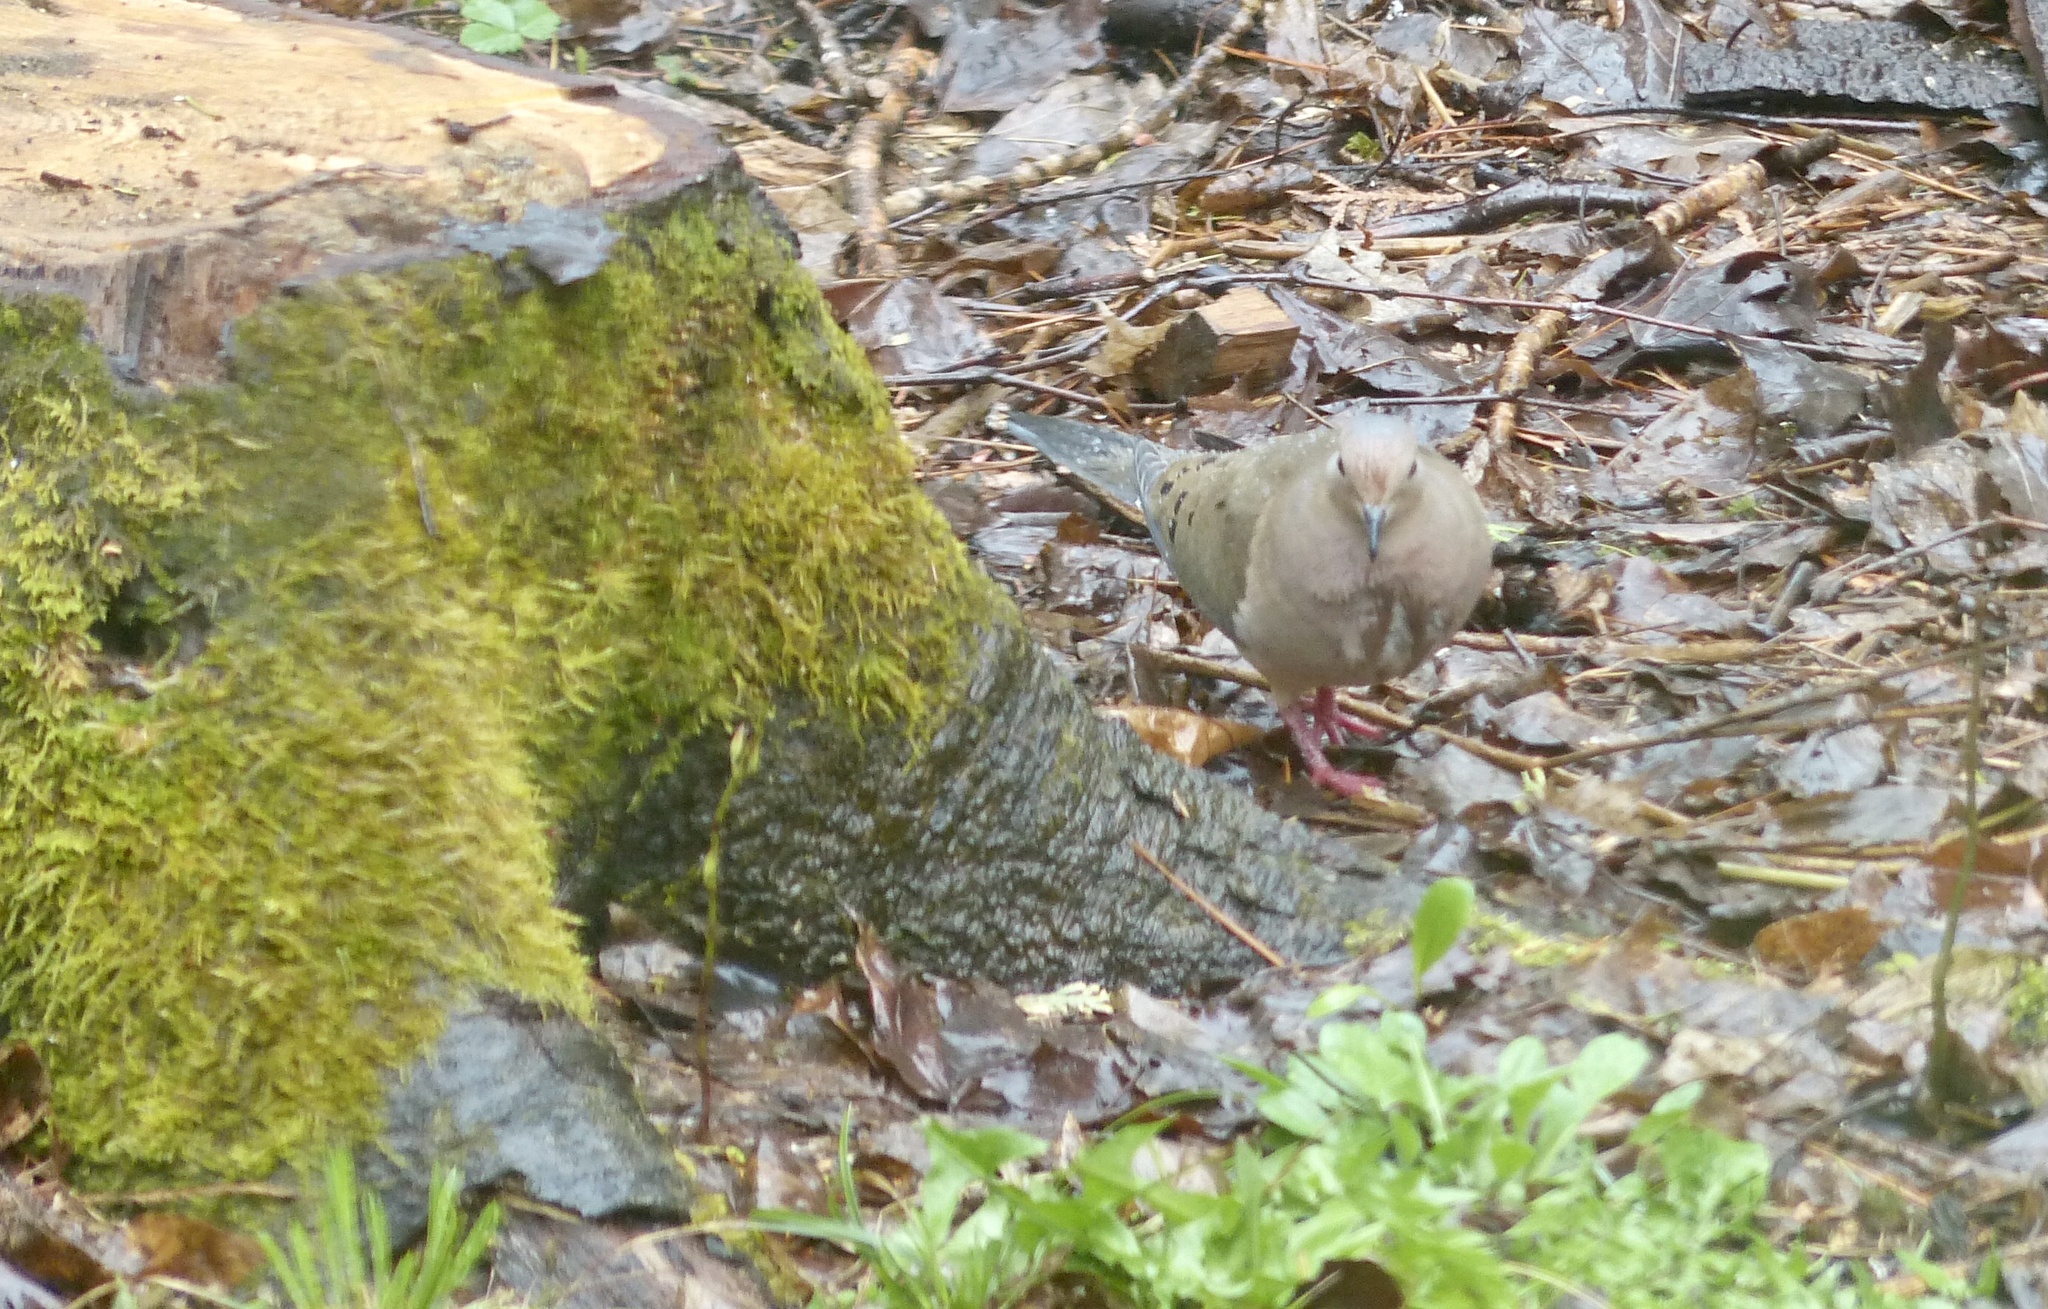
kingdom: Animalia
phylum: Chordata
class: Aves
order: Columbiformes
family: Columbidae
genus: Zenaida
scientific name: Zenaida macroura
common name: Mourning dove
